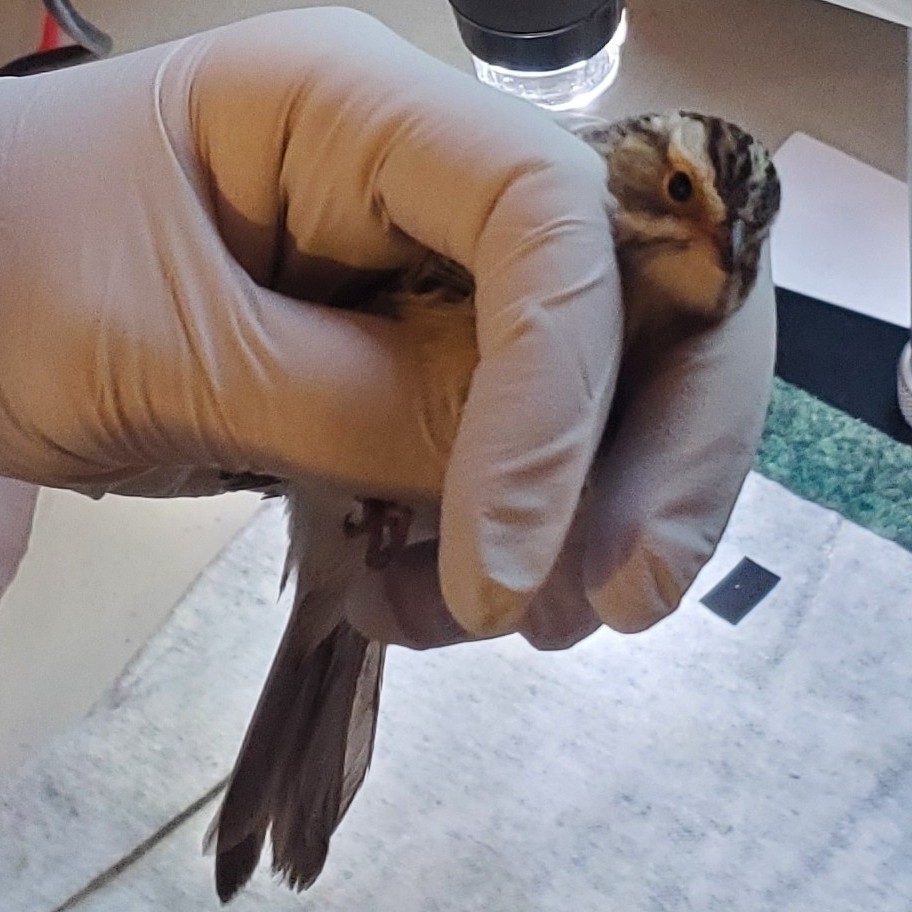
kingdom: Animalia
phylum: Chordata
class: Aves
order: Passeriformes
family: Passerellidae
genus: Zonotrichia
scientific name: Zonotrichia albicollis
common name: White-throated sparrow
